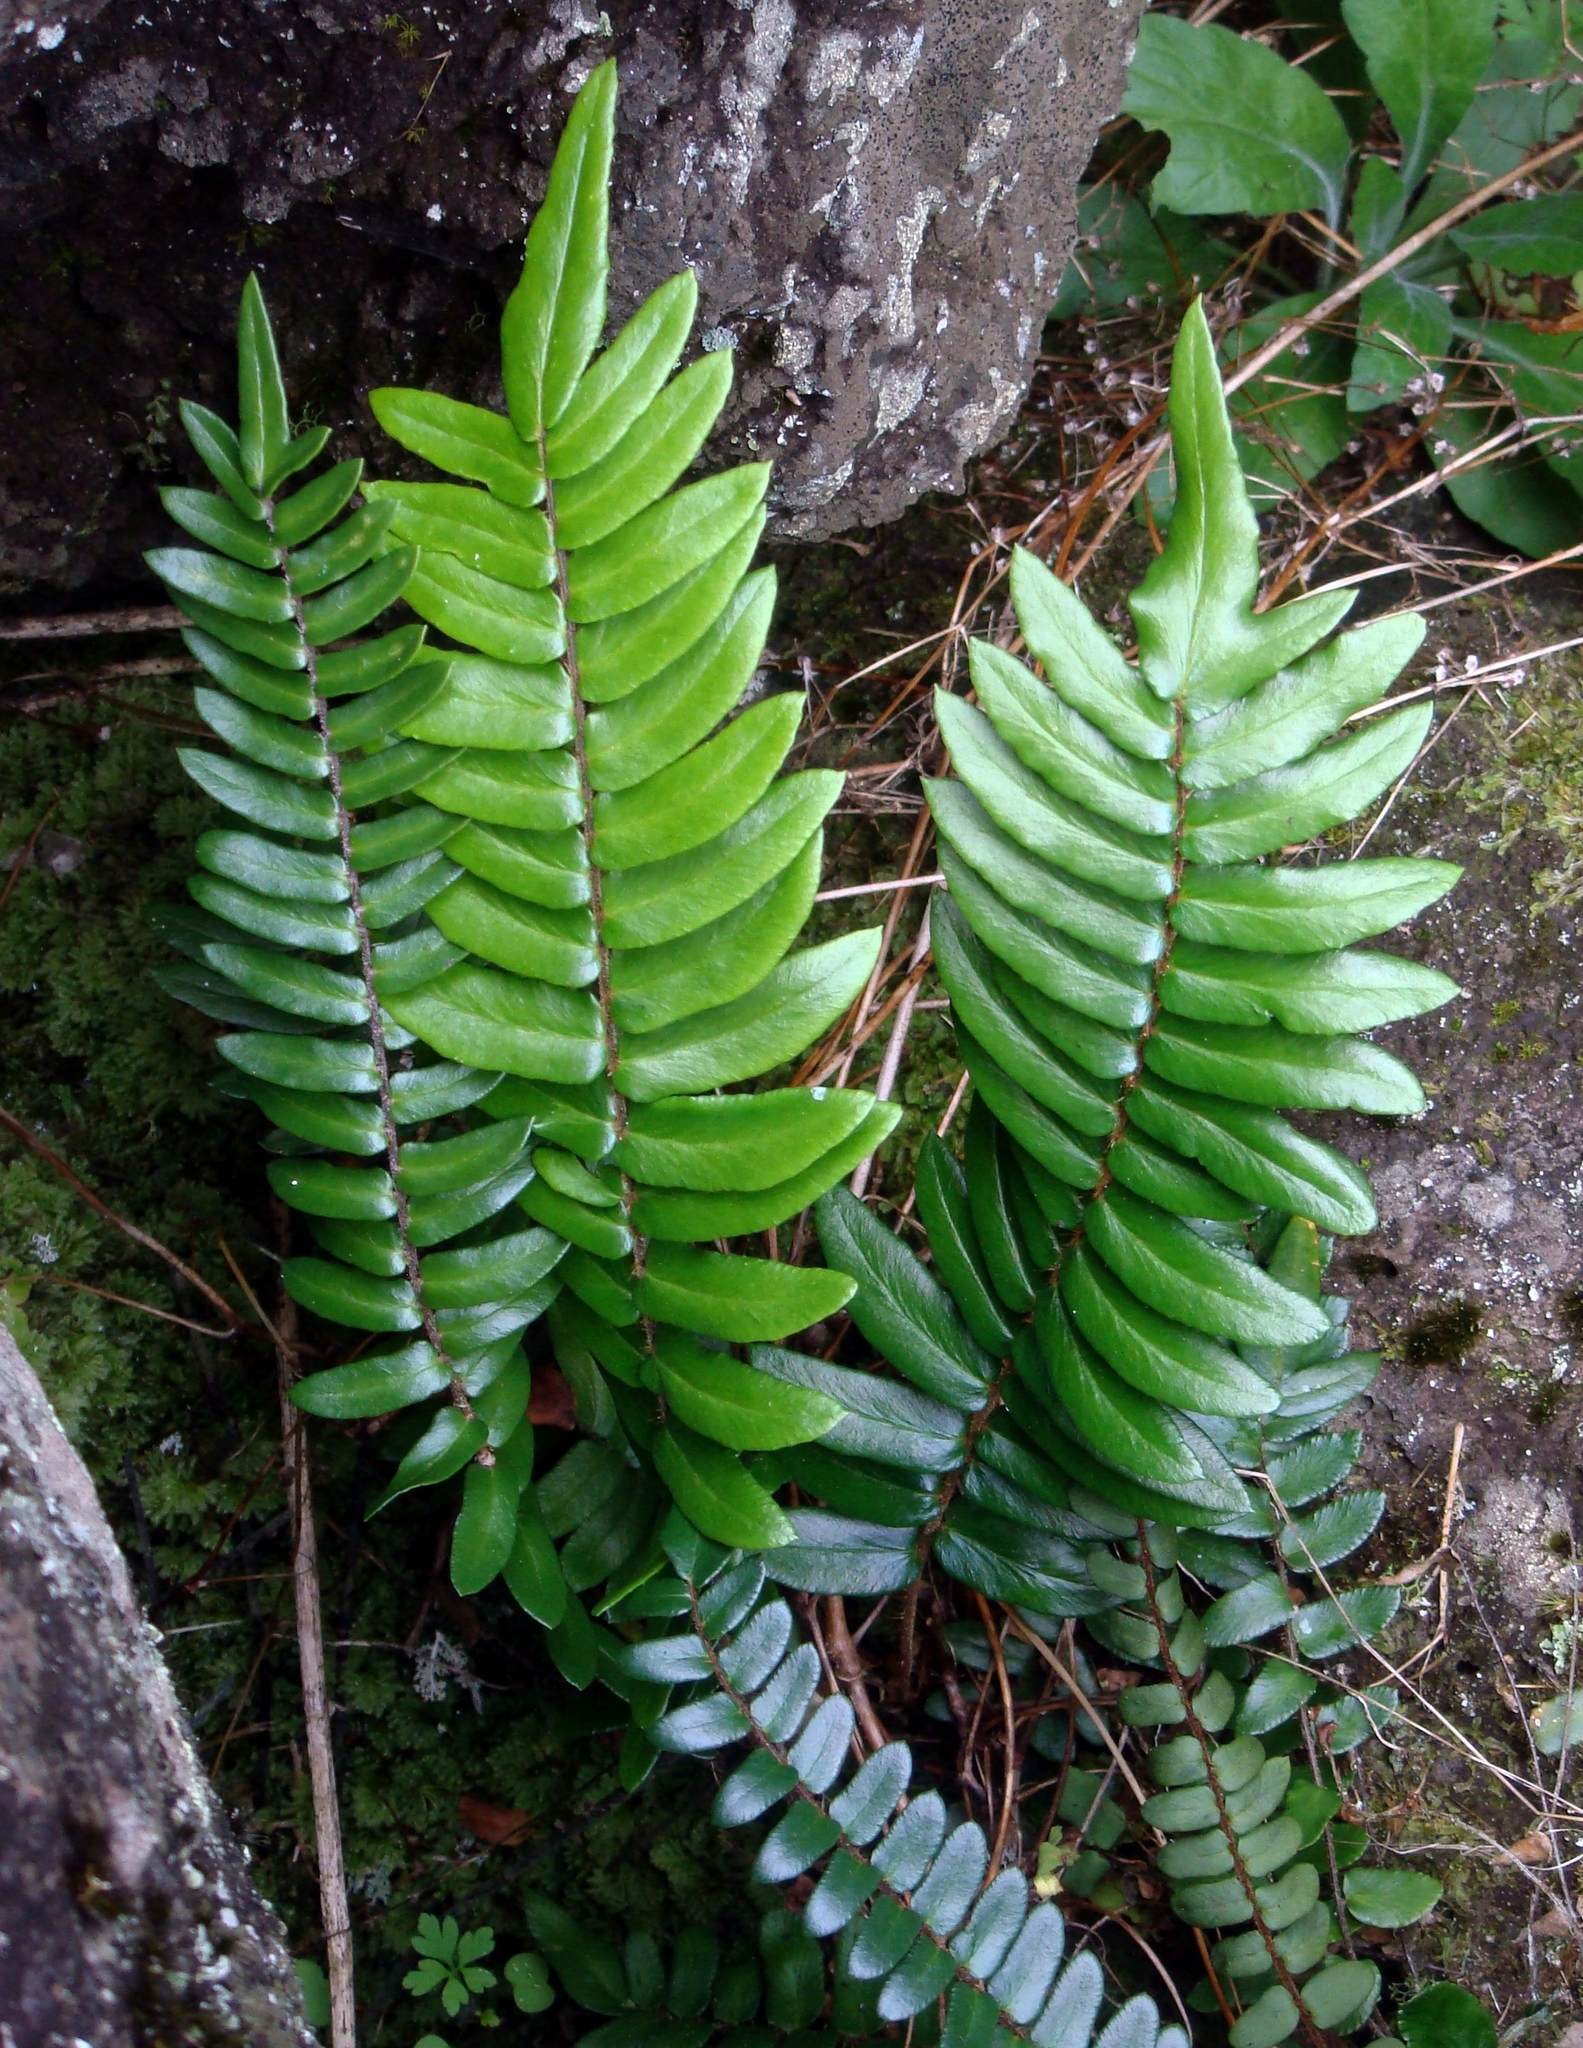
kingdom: Plantae
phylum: Tracheophyta
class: Polypodiopsida
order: Polypodiales
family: Pteridaceae
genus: Pellaea
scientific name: Pellaea falcata
